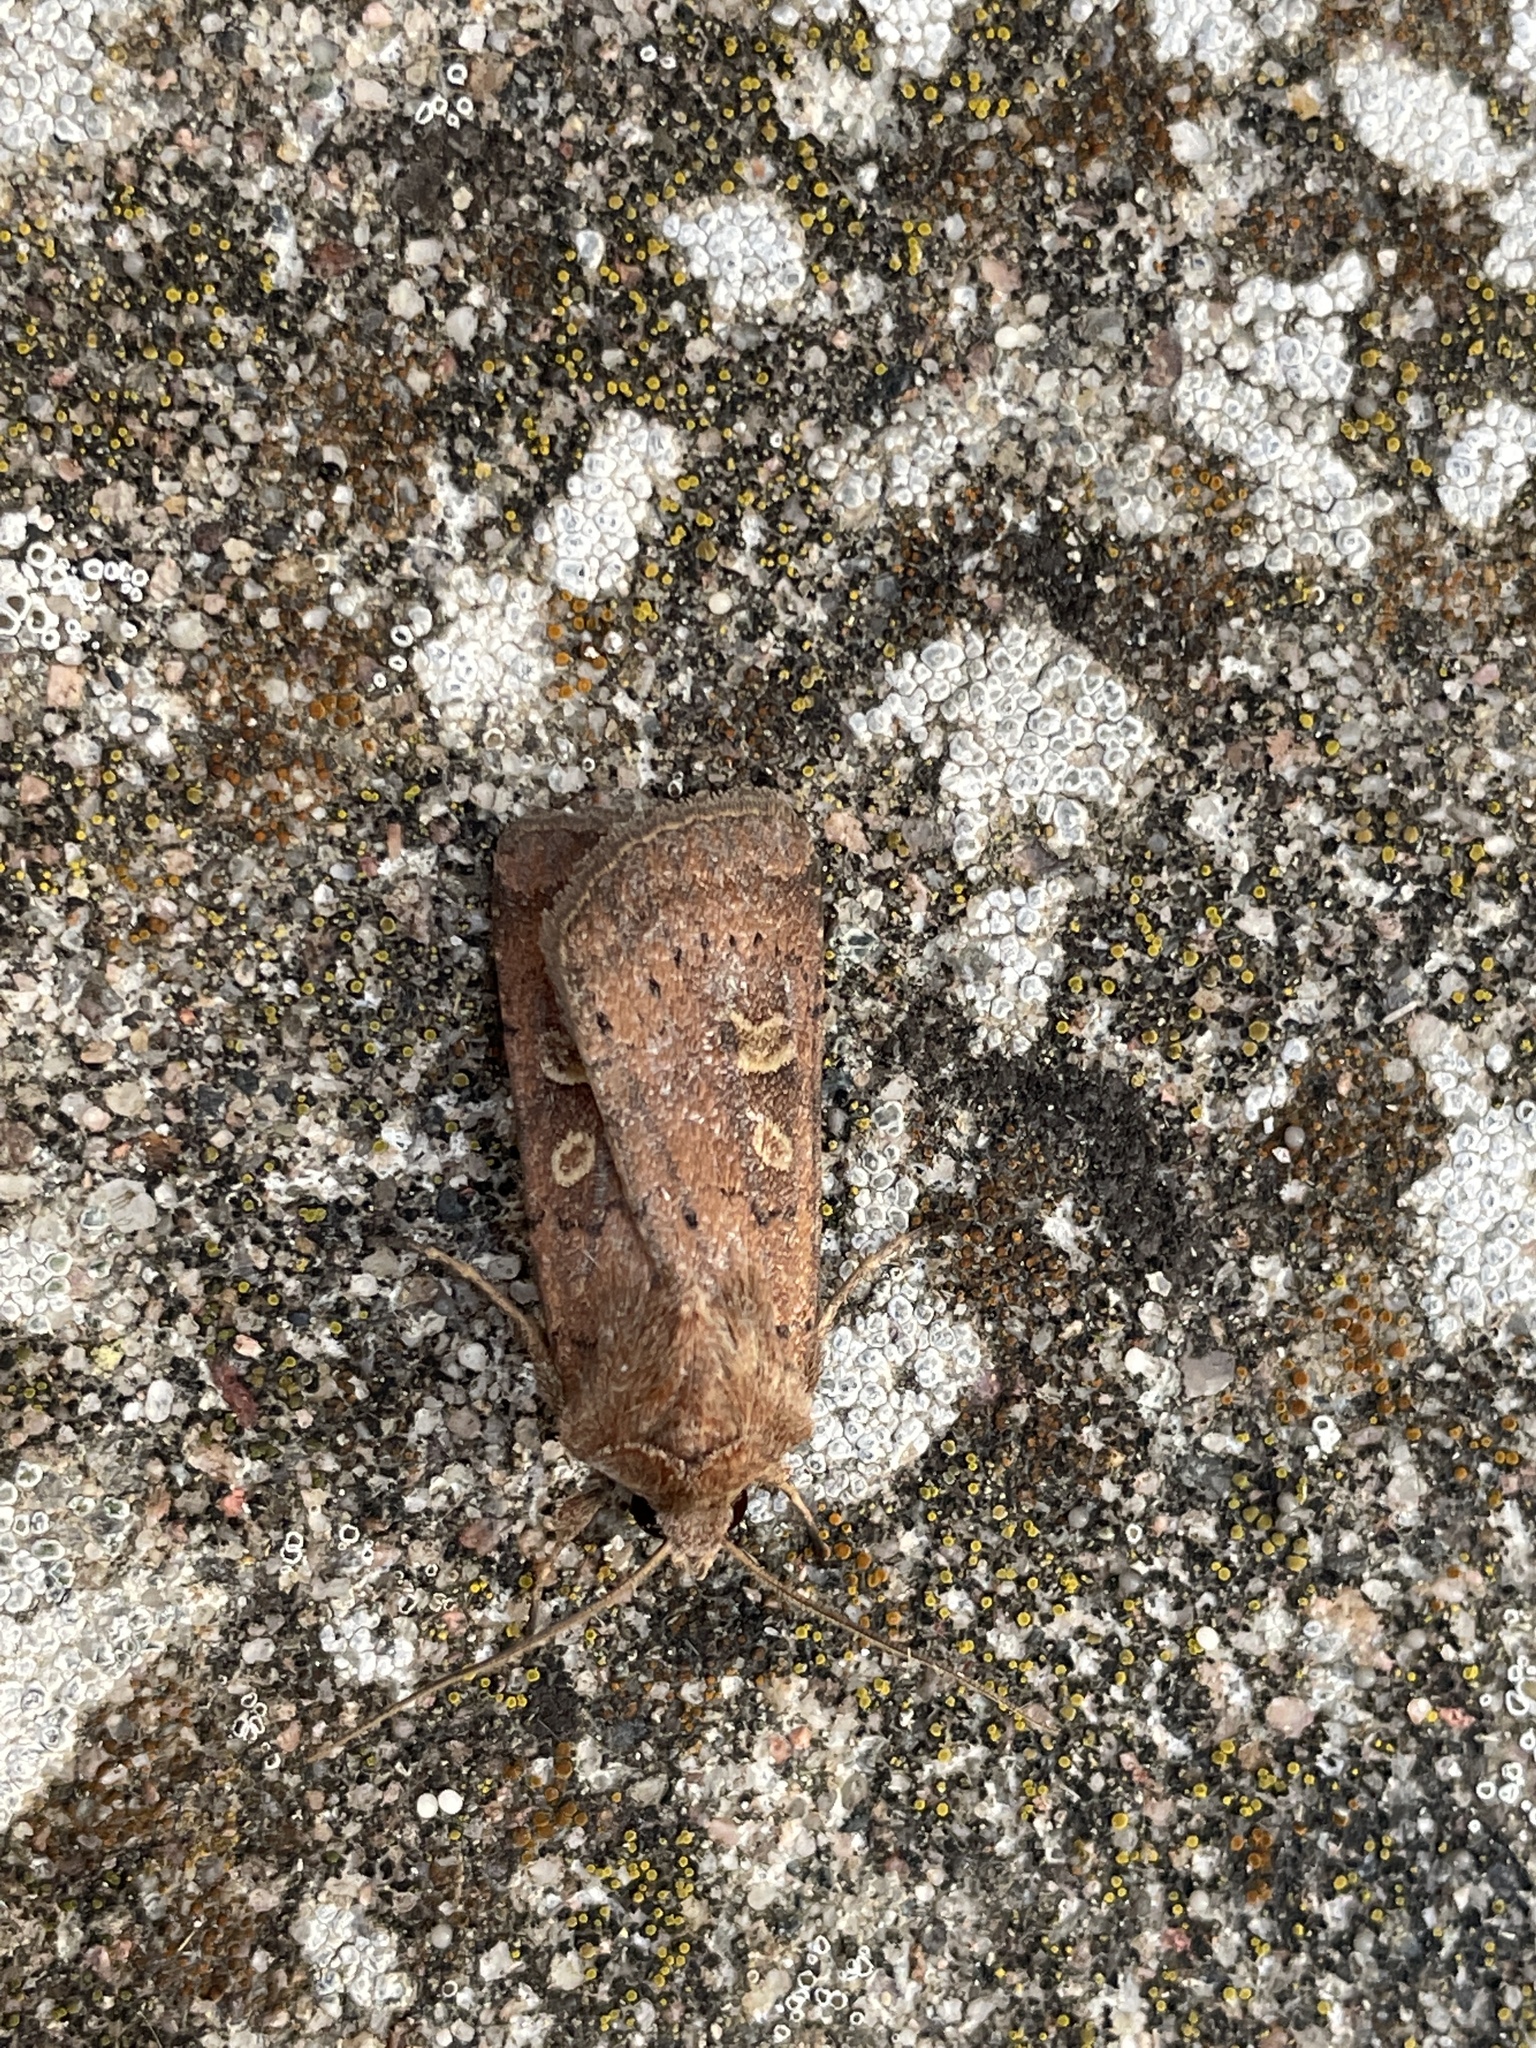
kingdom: Animalia
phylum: Arthropoda
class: Insecta
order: Lepidoptera
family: Noctuidae
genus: Xestia
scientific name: Xestia xanthographa
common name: Square-spot rustic
